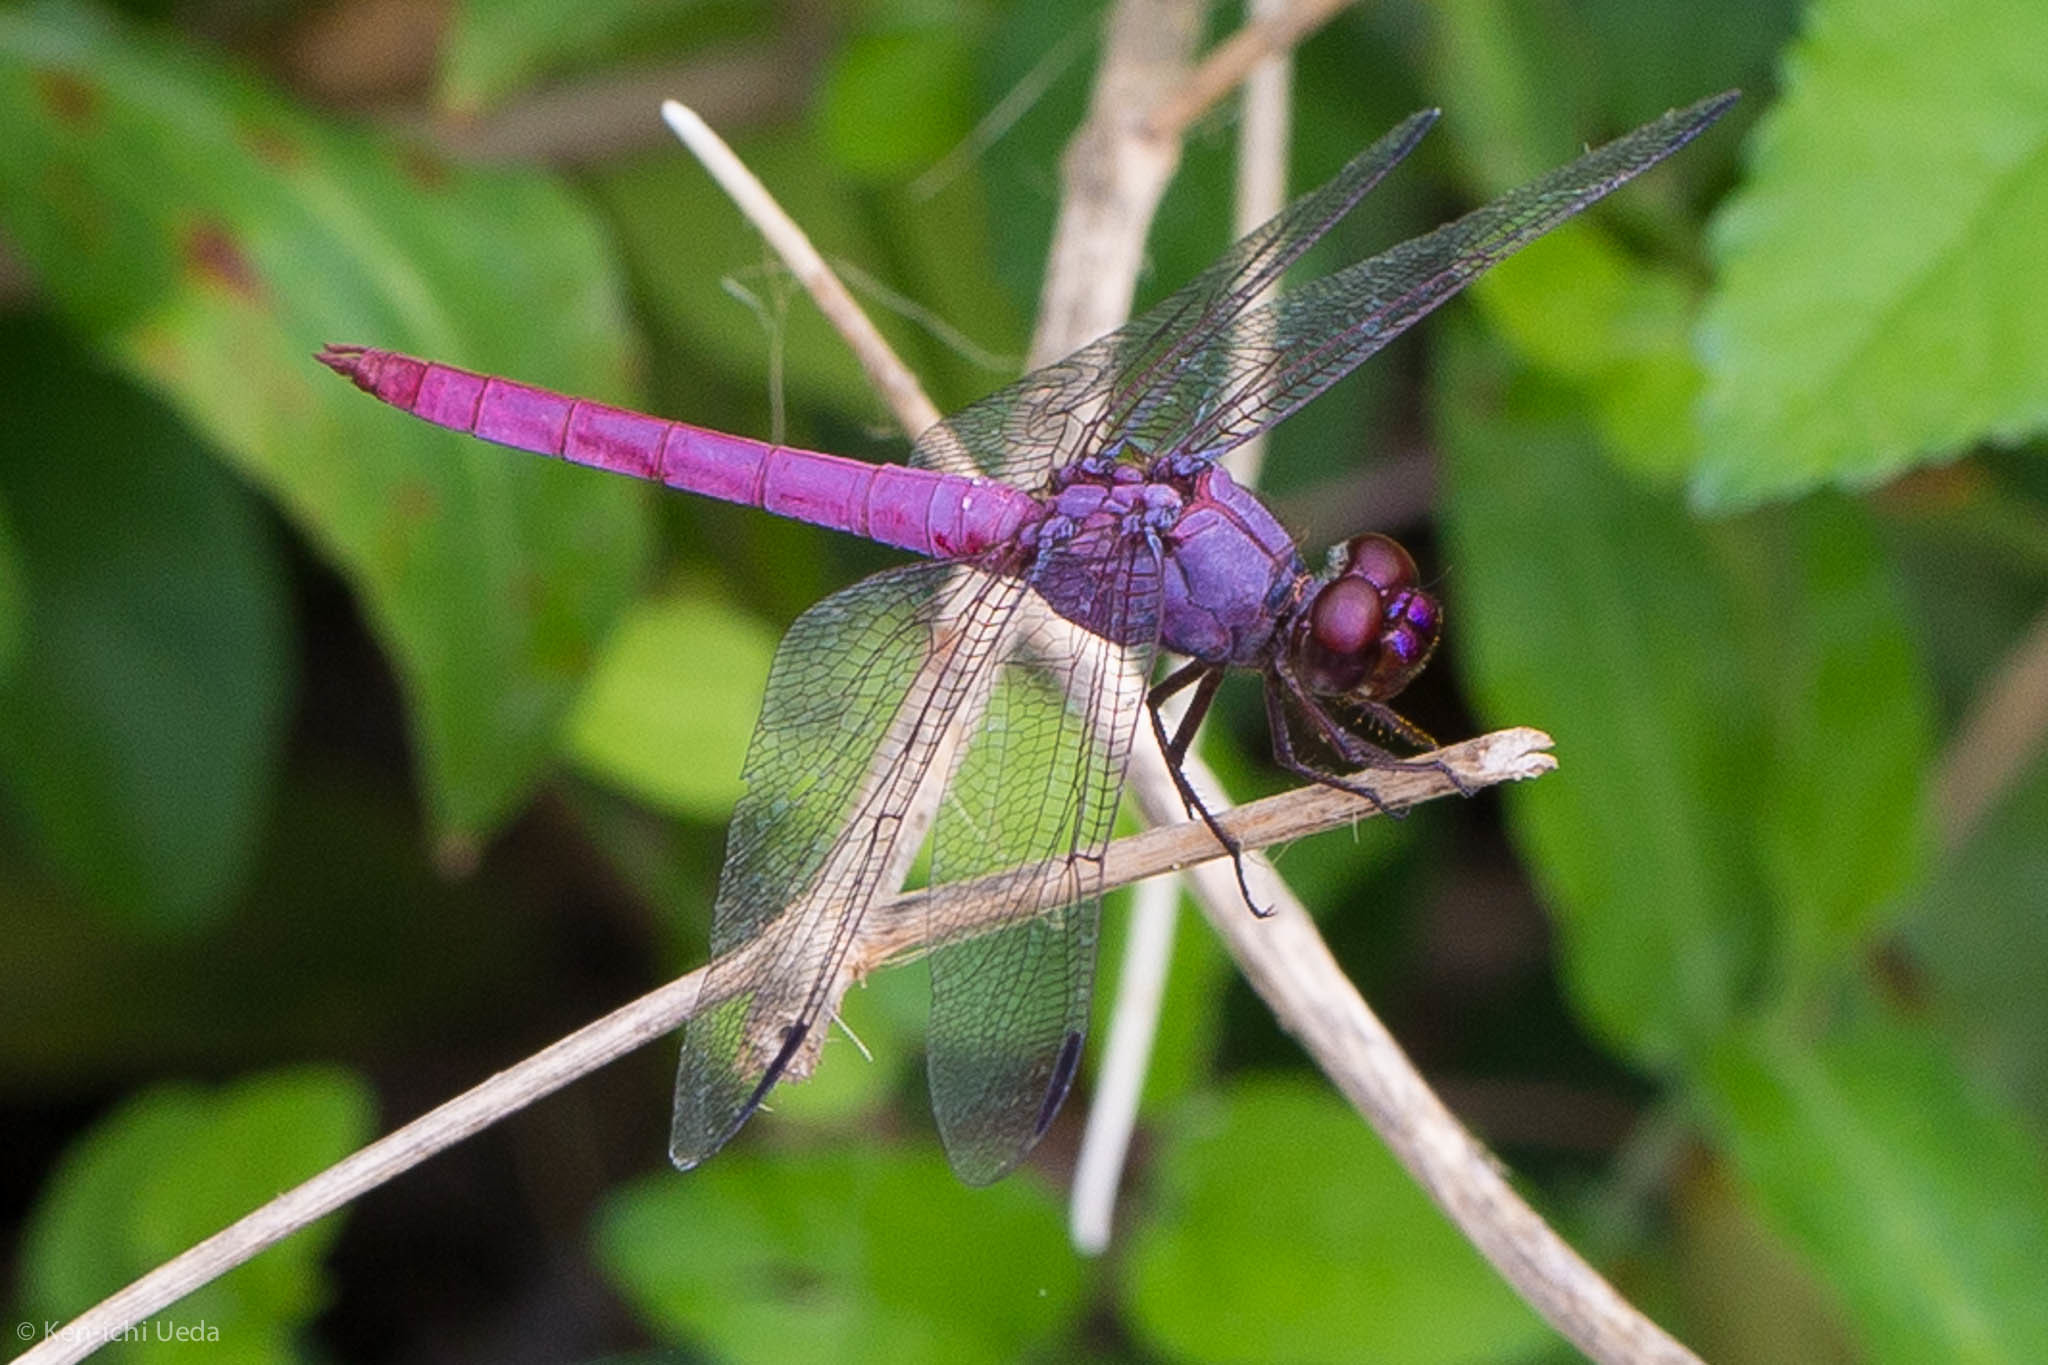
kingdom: Animalia
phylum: Arthropoda
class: Insecta
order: Odonata
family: Libellulidae
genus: Orthemis
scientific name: Orthemis ferruginea
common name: Roseate skimmer
